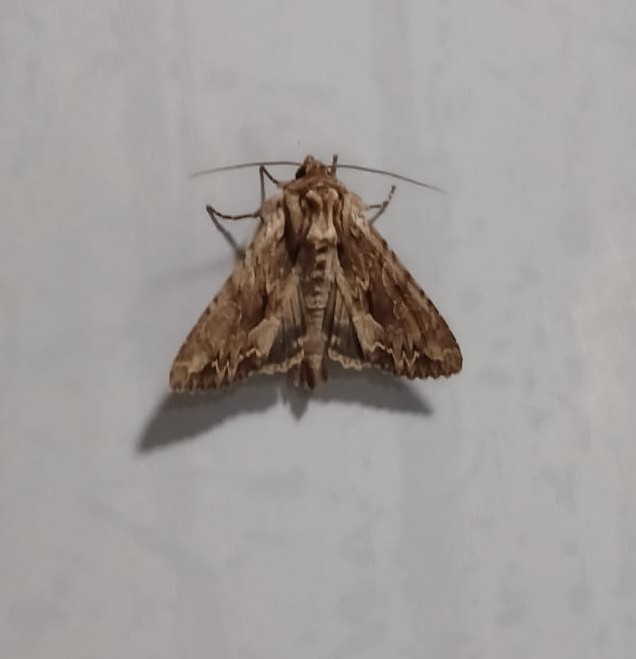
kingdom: Animalia
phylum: Arthropoda
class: Insecta
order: Lepidoptera
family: Noctuidae
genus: Apamea
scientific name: Apamea monoglypha
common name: Dark arches
